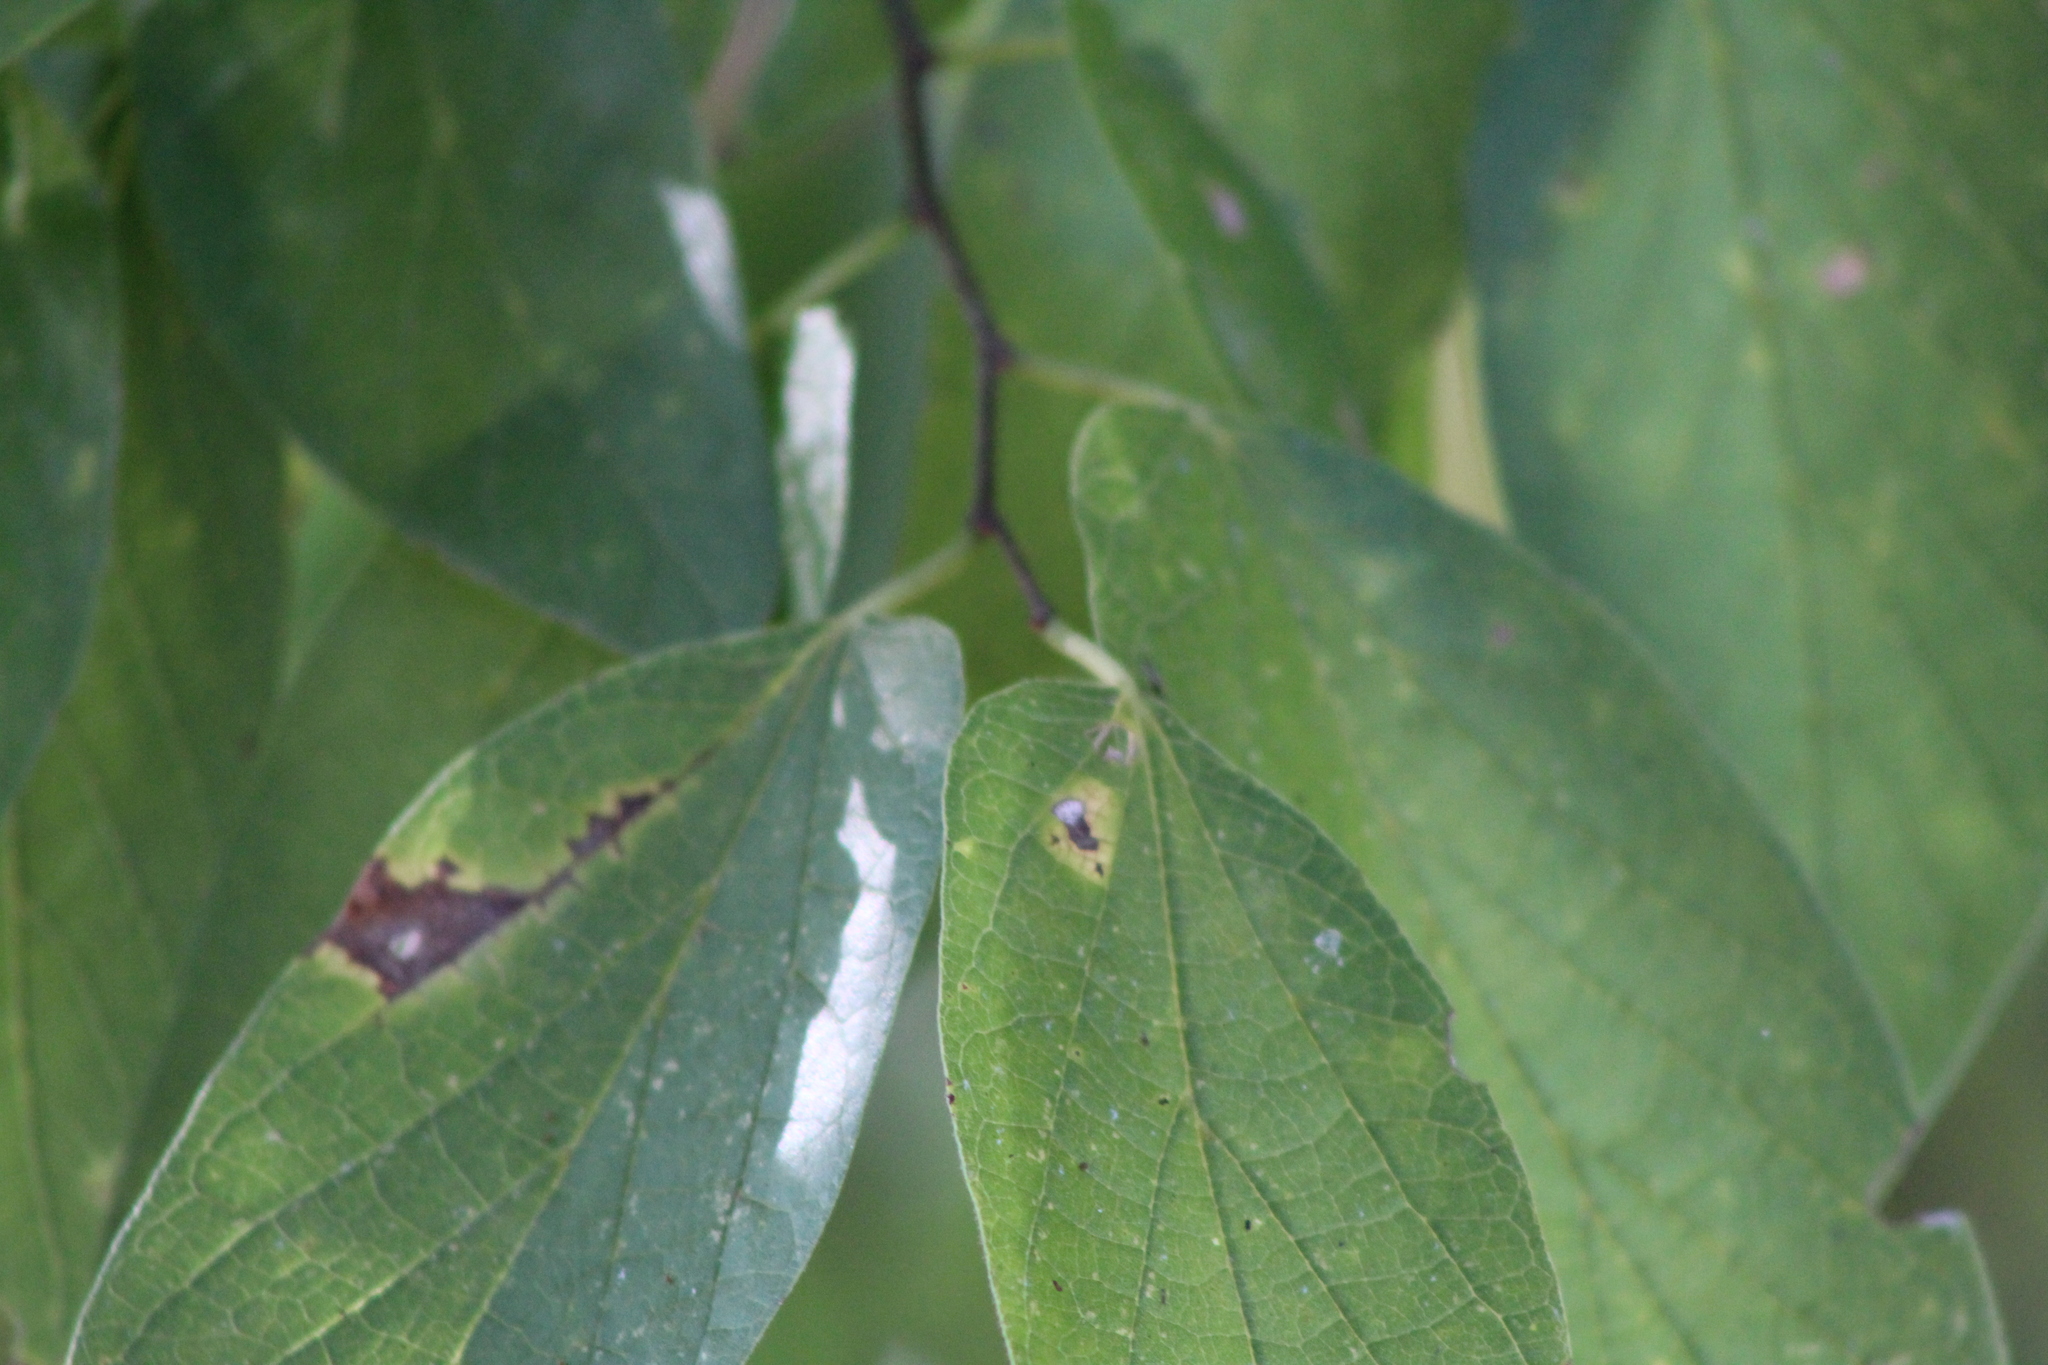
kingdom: Plantae
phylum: Tracheophyta
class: Magnoliopsida
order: Rosales
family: Cannabaceae
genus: Celtis
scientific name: Celtis laevigata
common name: Sugarberry
